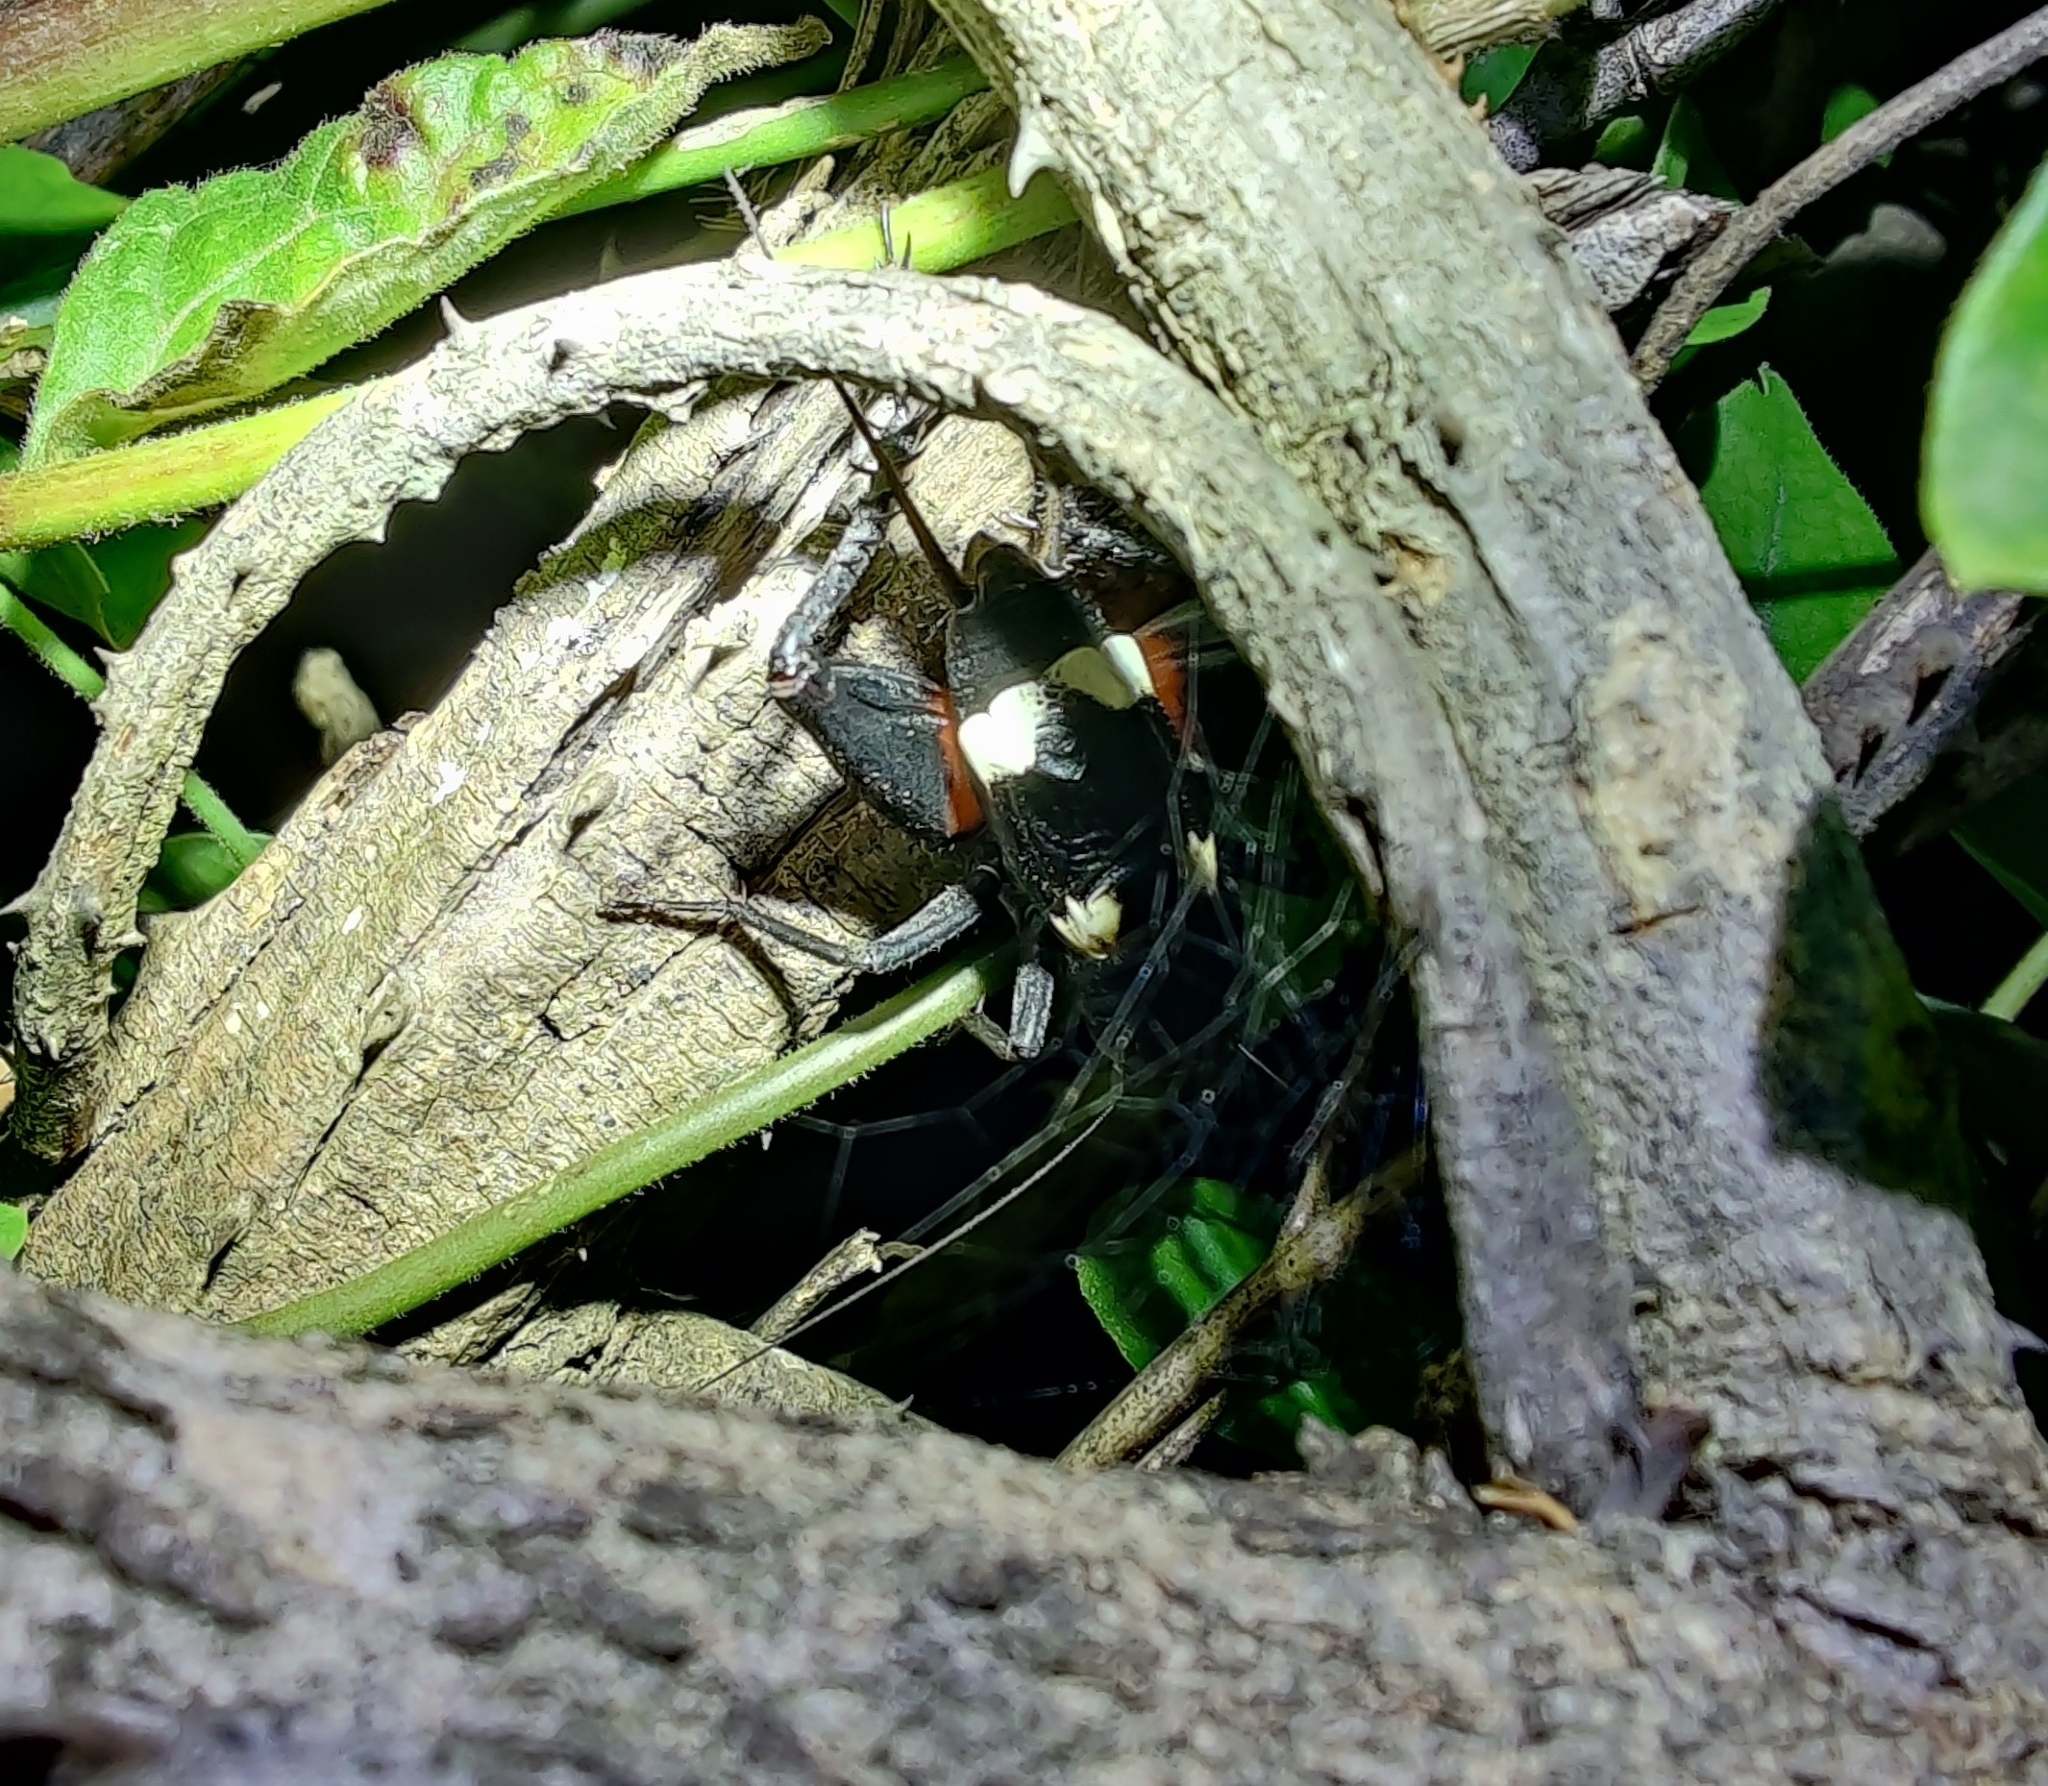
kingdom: Animalia
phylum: Arthropoda
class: Insecta
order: Orthoptera
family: Gryllidae
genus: Gryllus
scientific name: Gryllus quadrimaculatus
